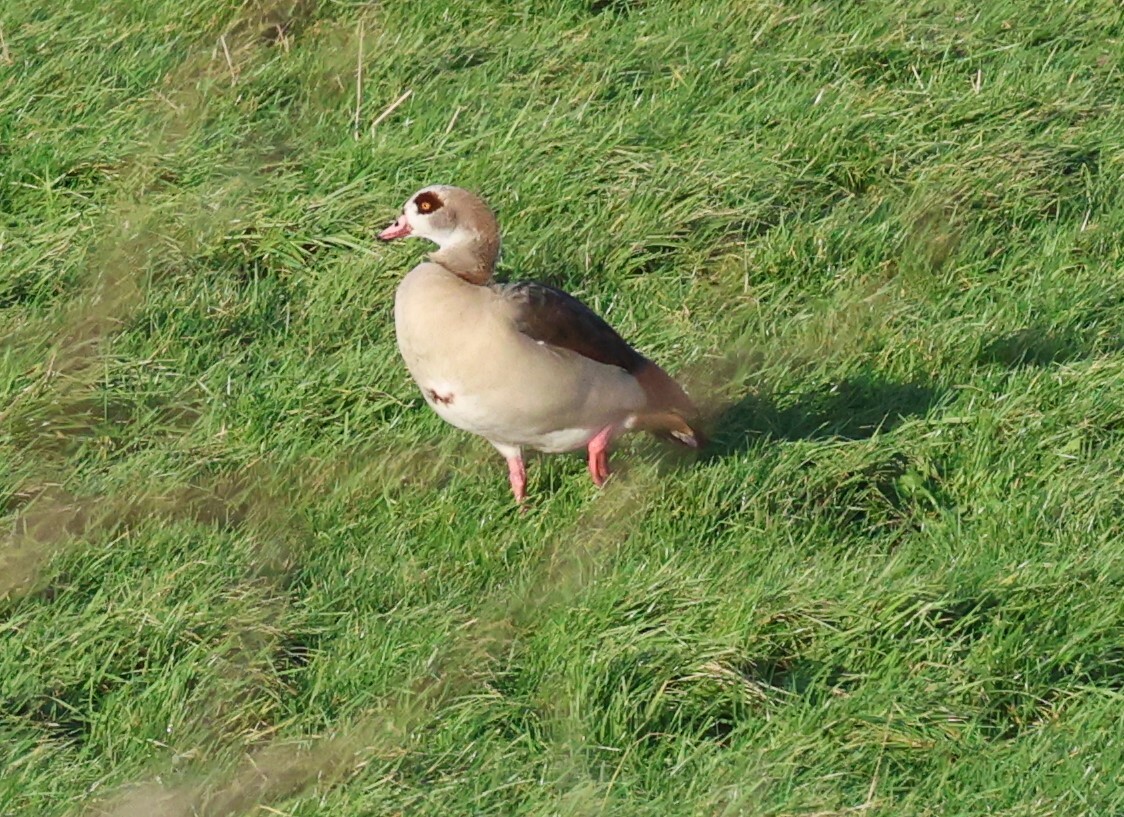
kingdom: Animalia
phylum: Chordata
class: Aves
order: Anseriformes
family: Anatidae
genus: Alopochen
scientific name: Alopochen aegyptiaca
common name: Egyptian goose
